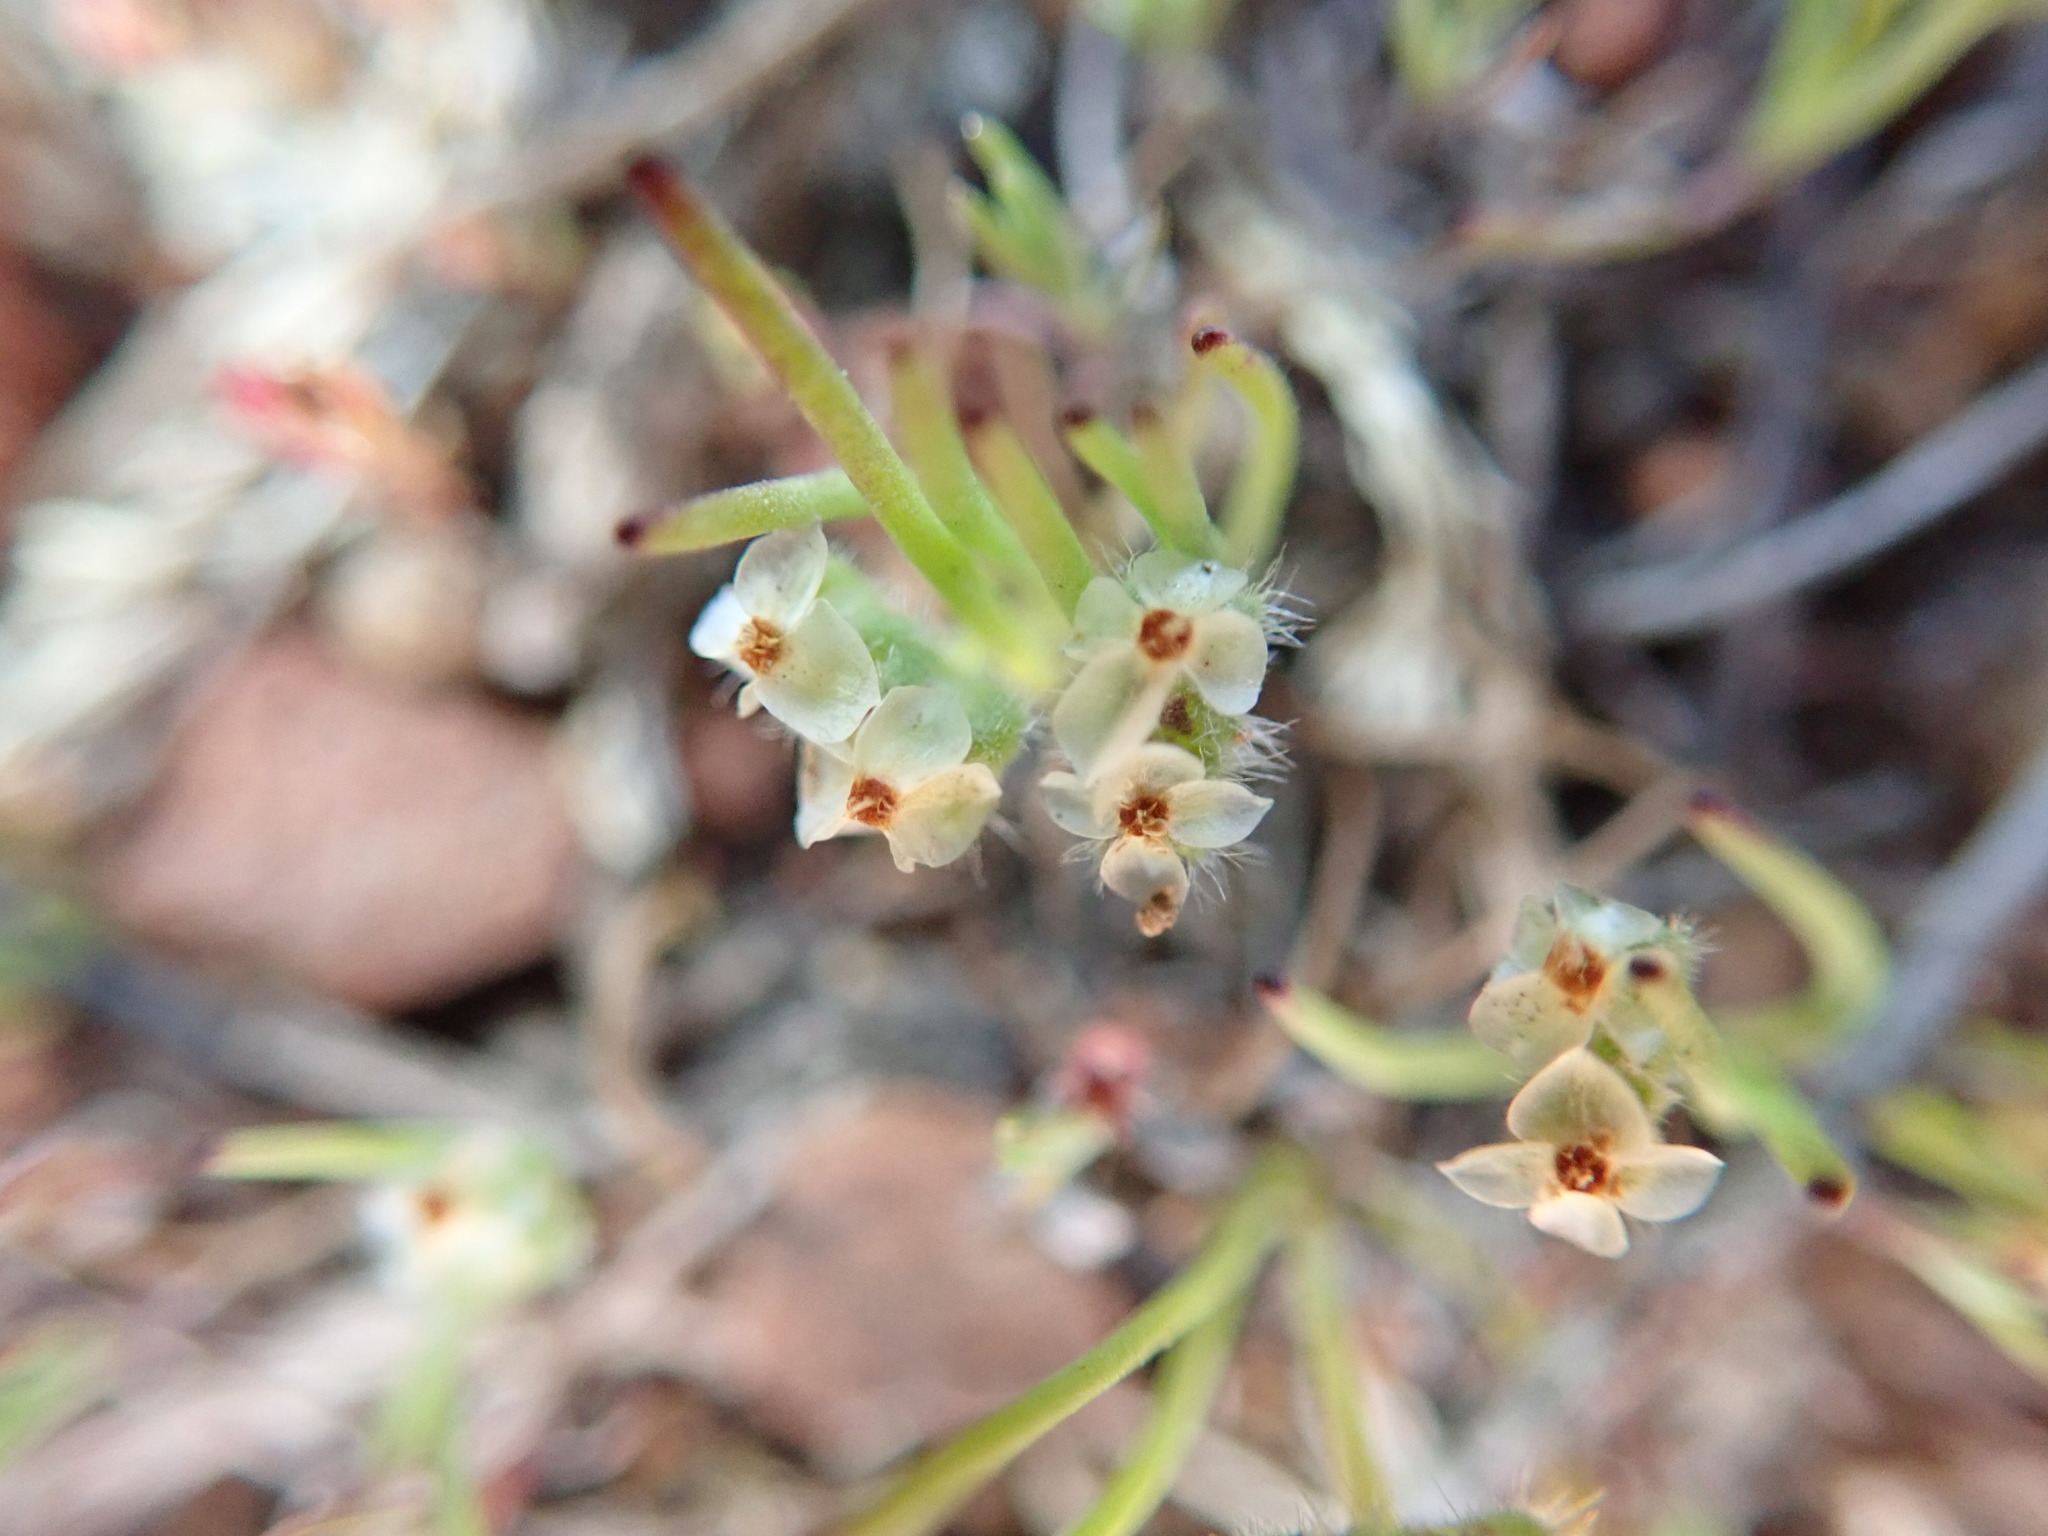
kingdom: Plantae
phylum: Tracheophyta
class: Magnoliopsida
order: Lamiales
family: Plantaginaceae
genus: Plantago
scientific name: Plantago erecta
